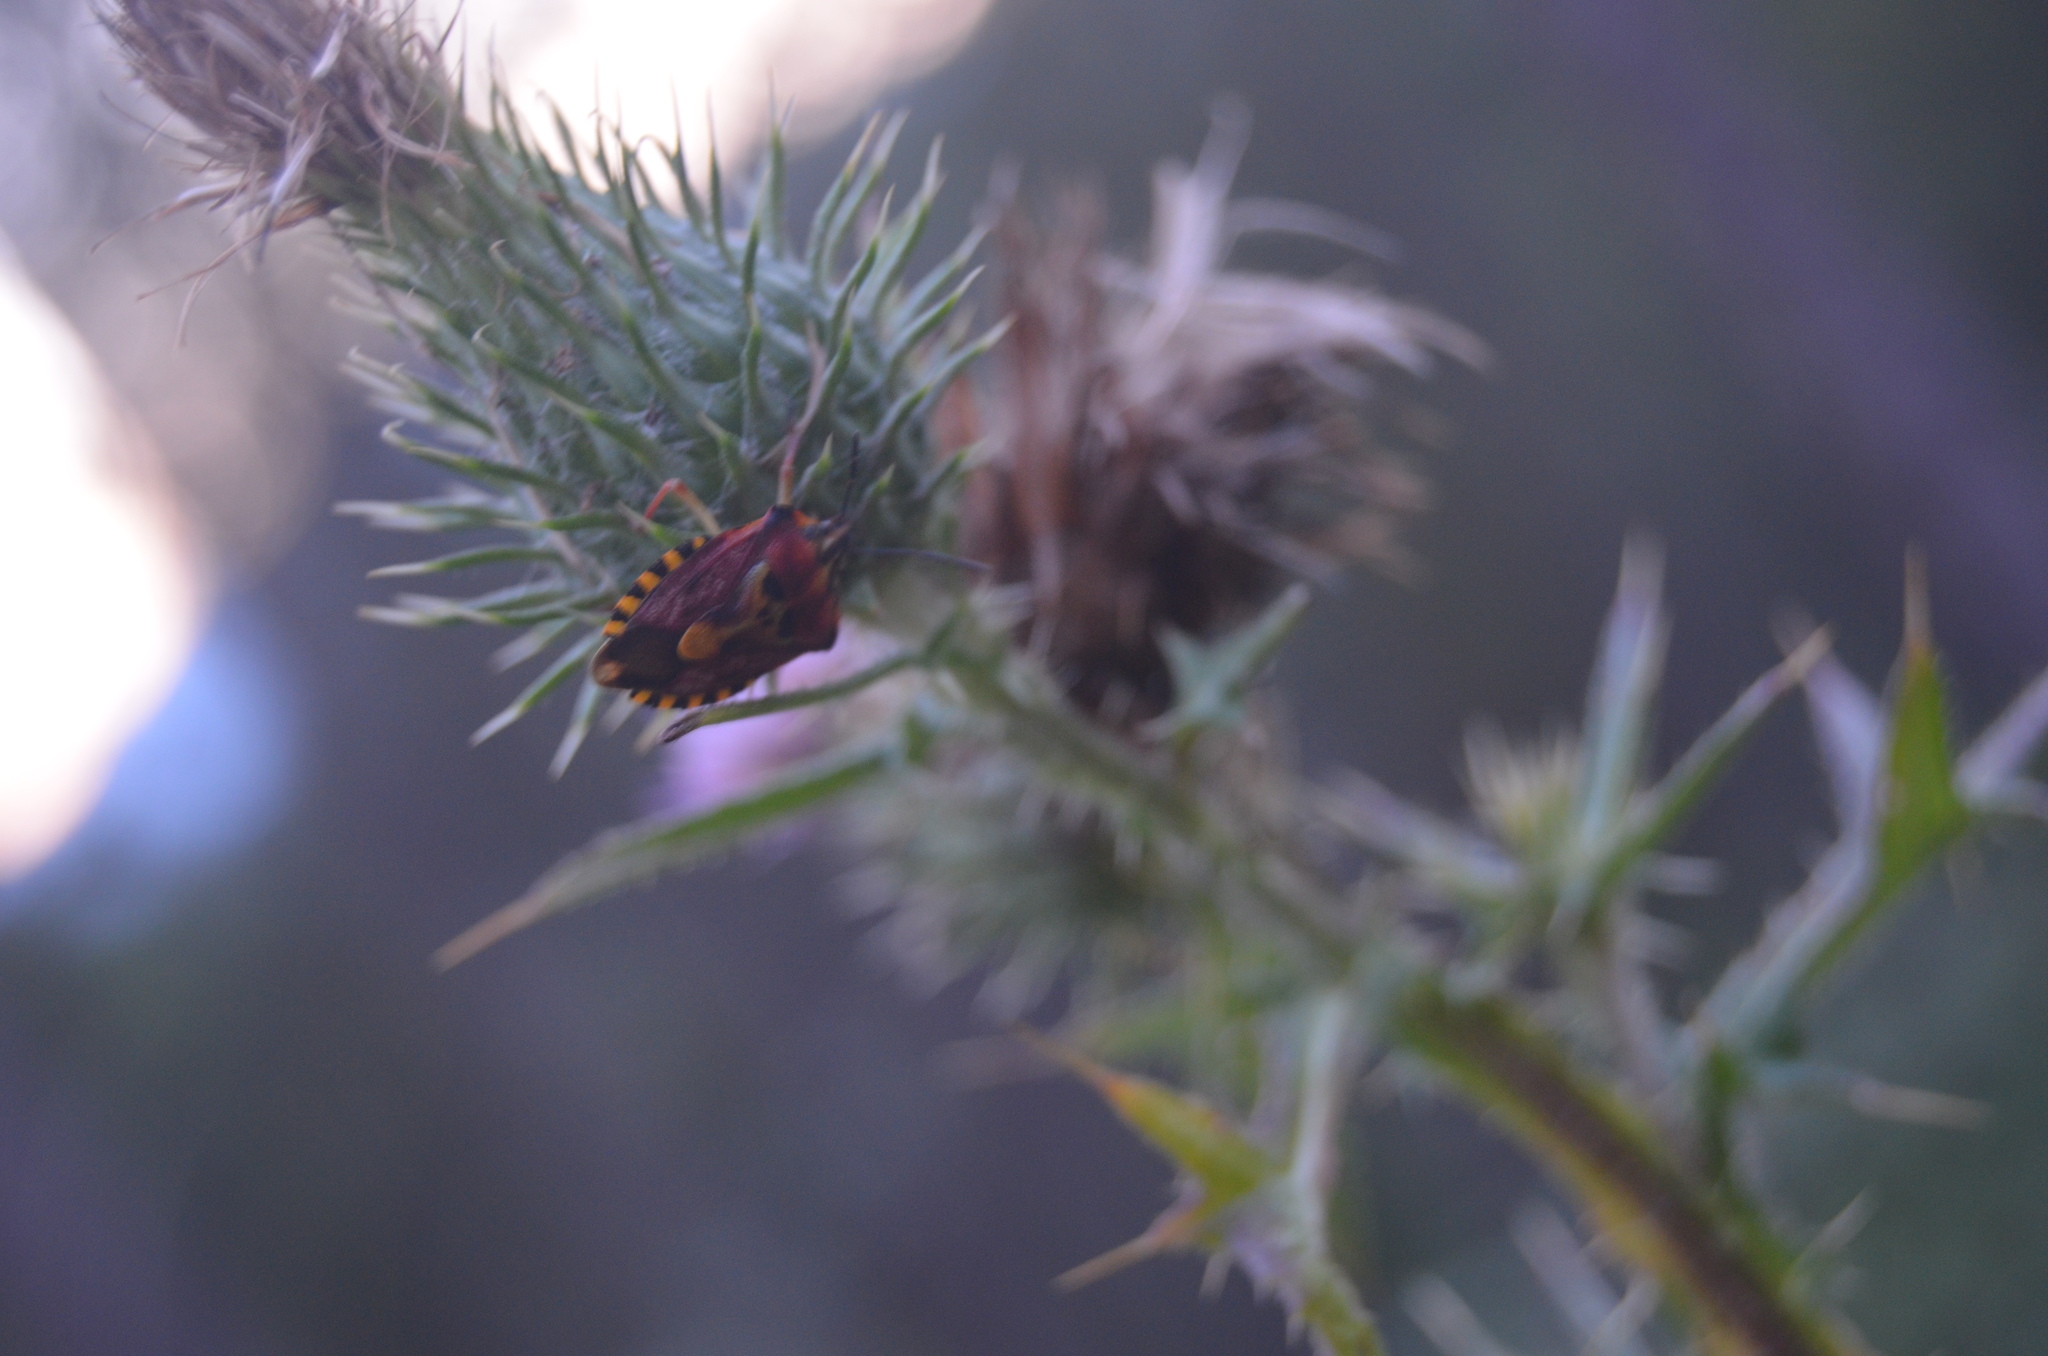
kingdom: Animalia
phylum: Arthropoda
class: Insecta
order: Hemiptera
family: Pentatomidae
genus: Carpocoris
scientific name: Carpocoris purpureipennis
